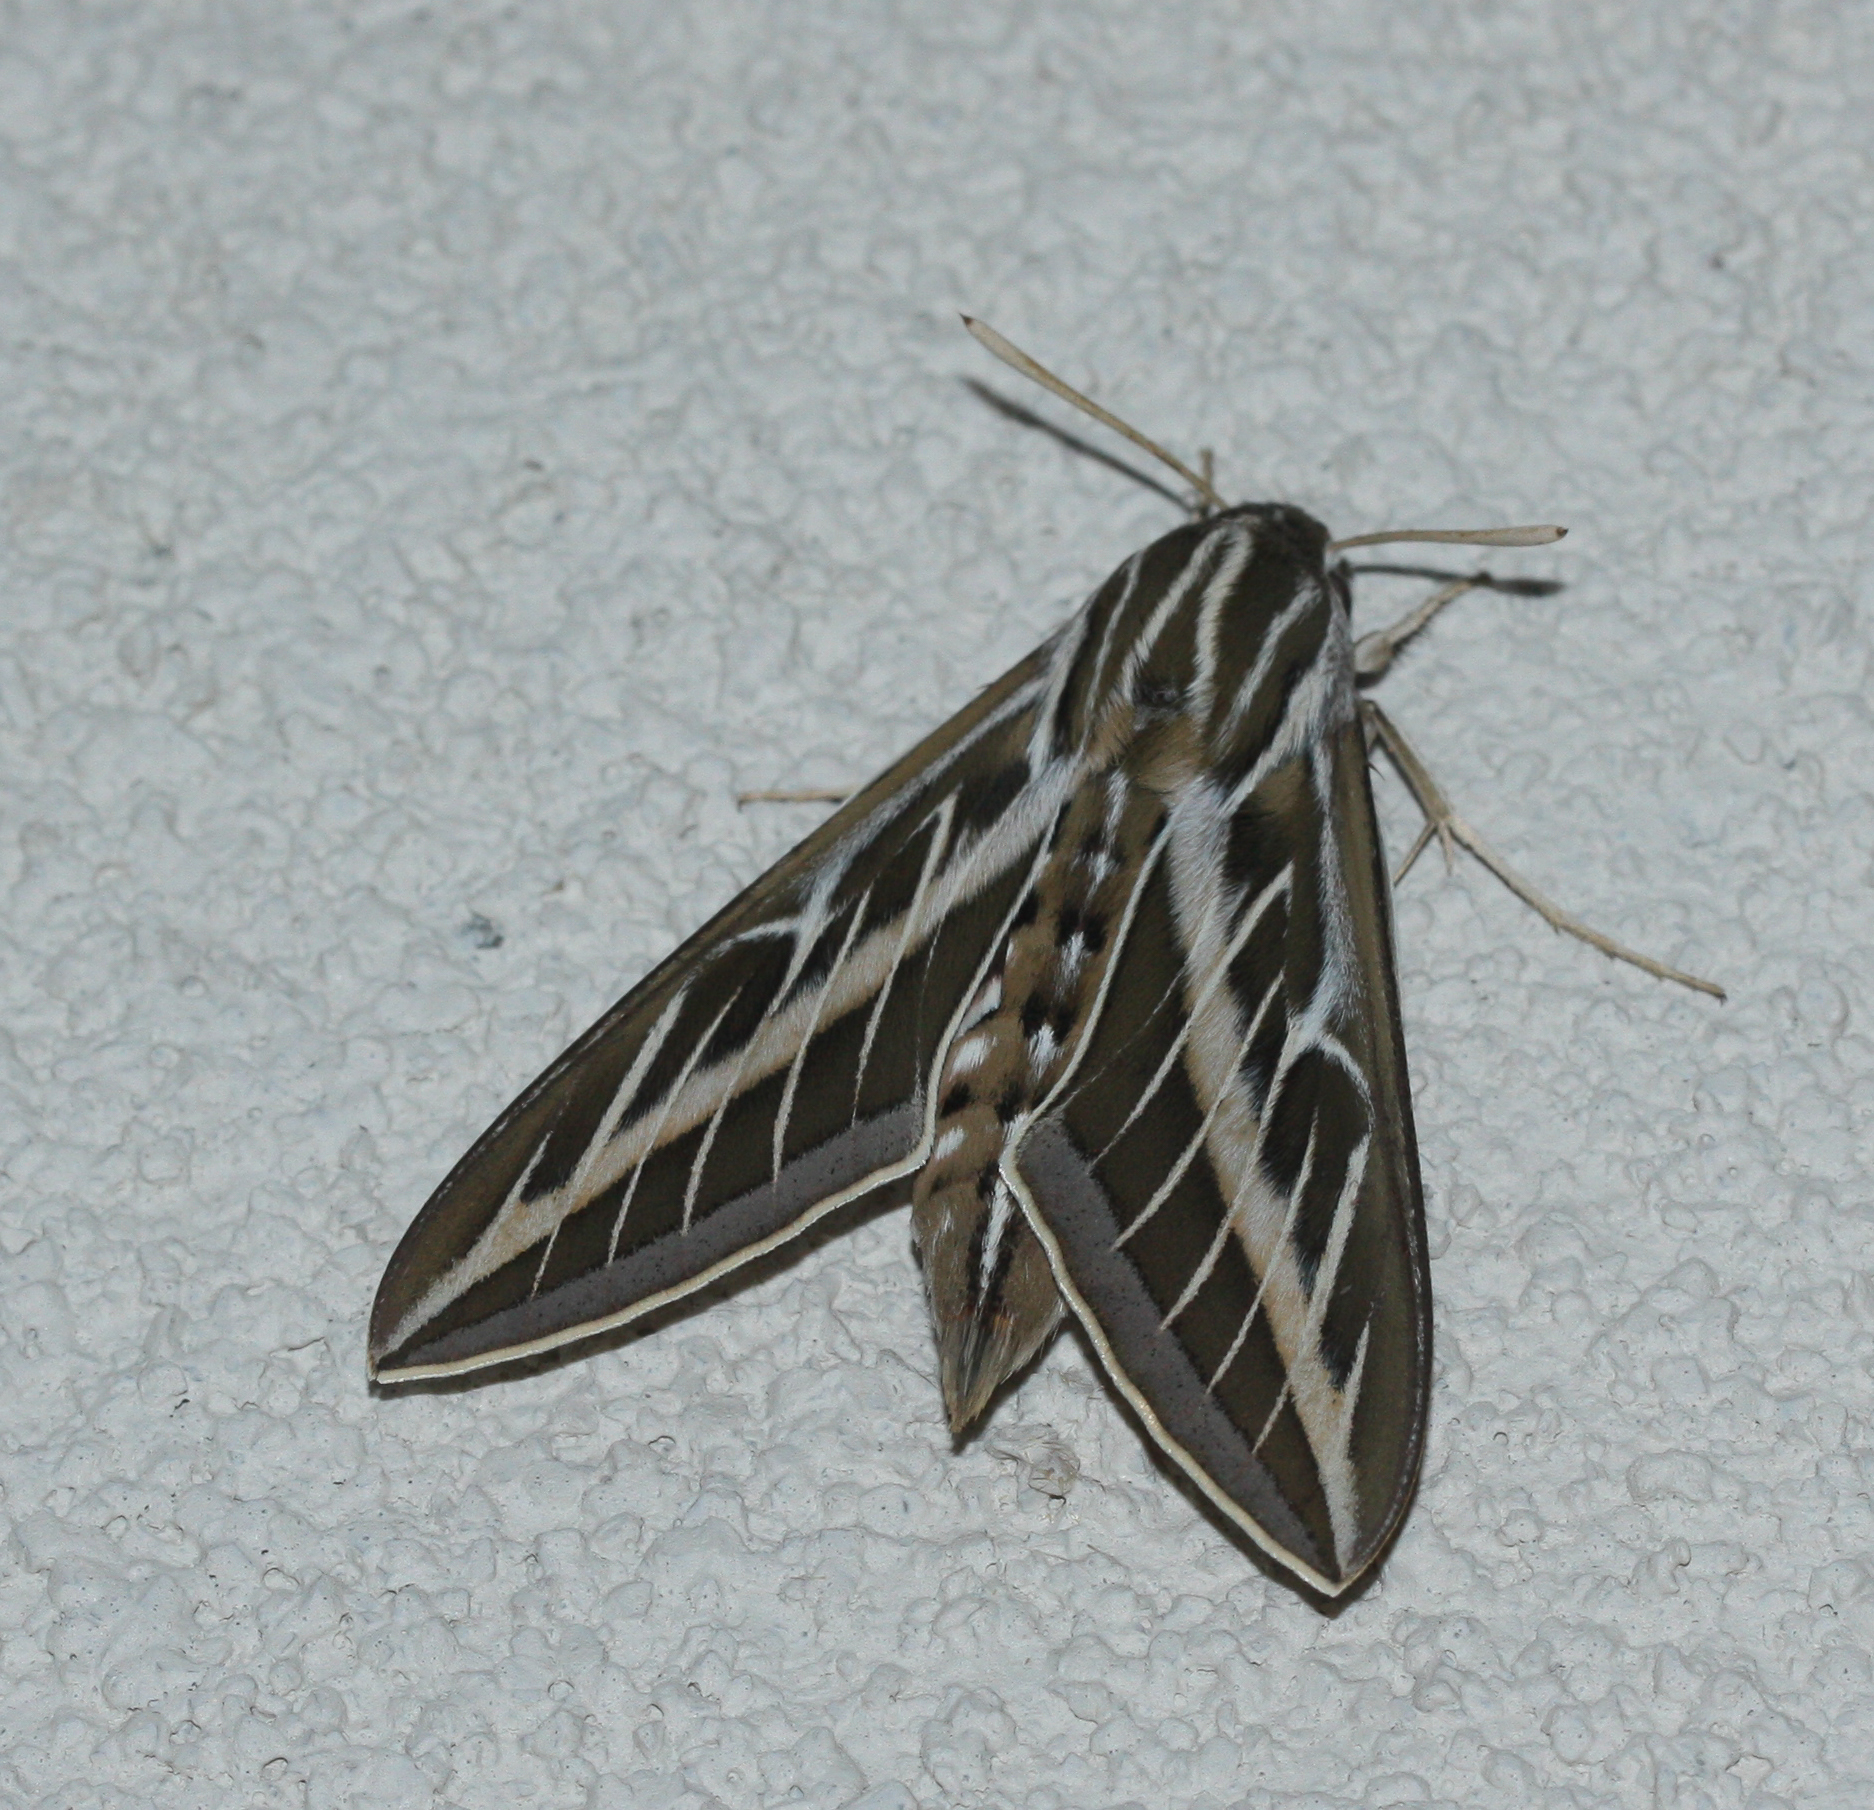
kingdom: Animalia
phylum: Arthropoda
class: Insecta
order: Lepidoptera
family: Sphingidae
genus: Hyles
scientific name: Hyles lineata
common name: White-lined sphinx
